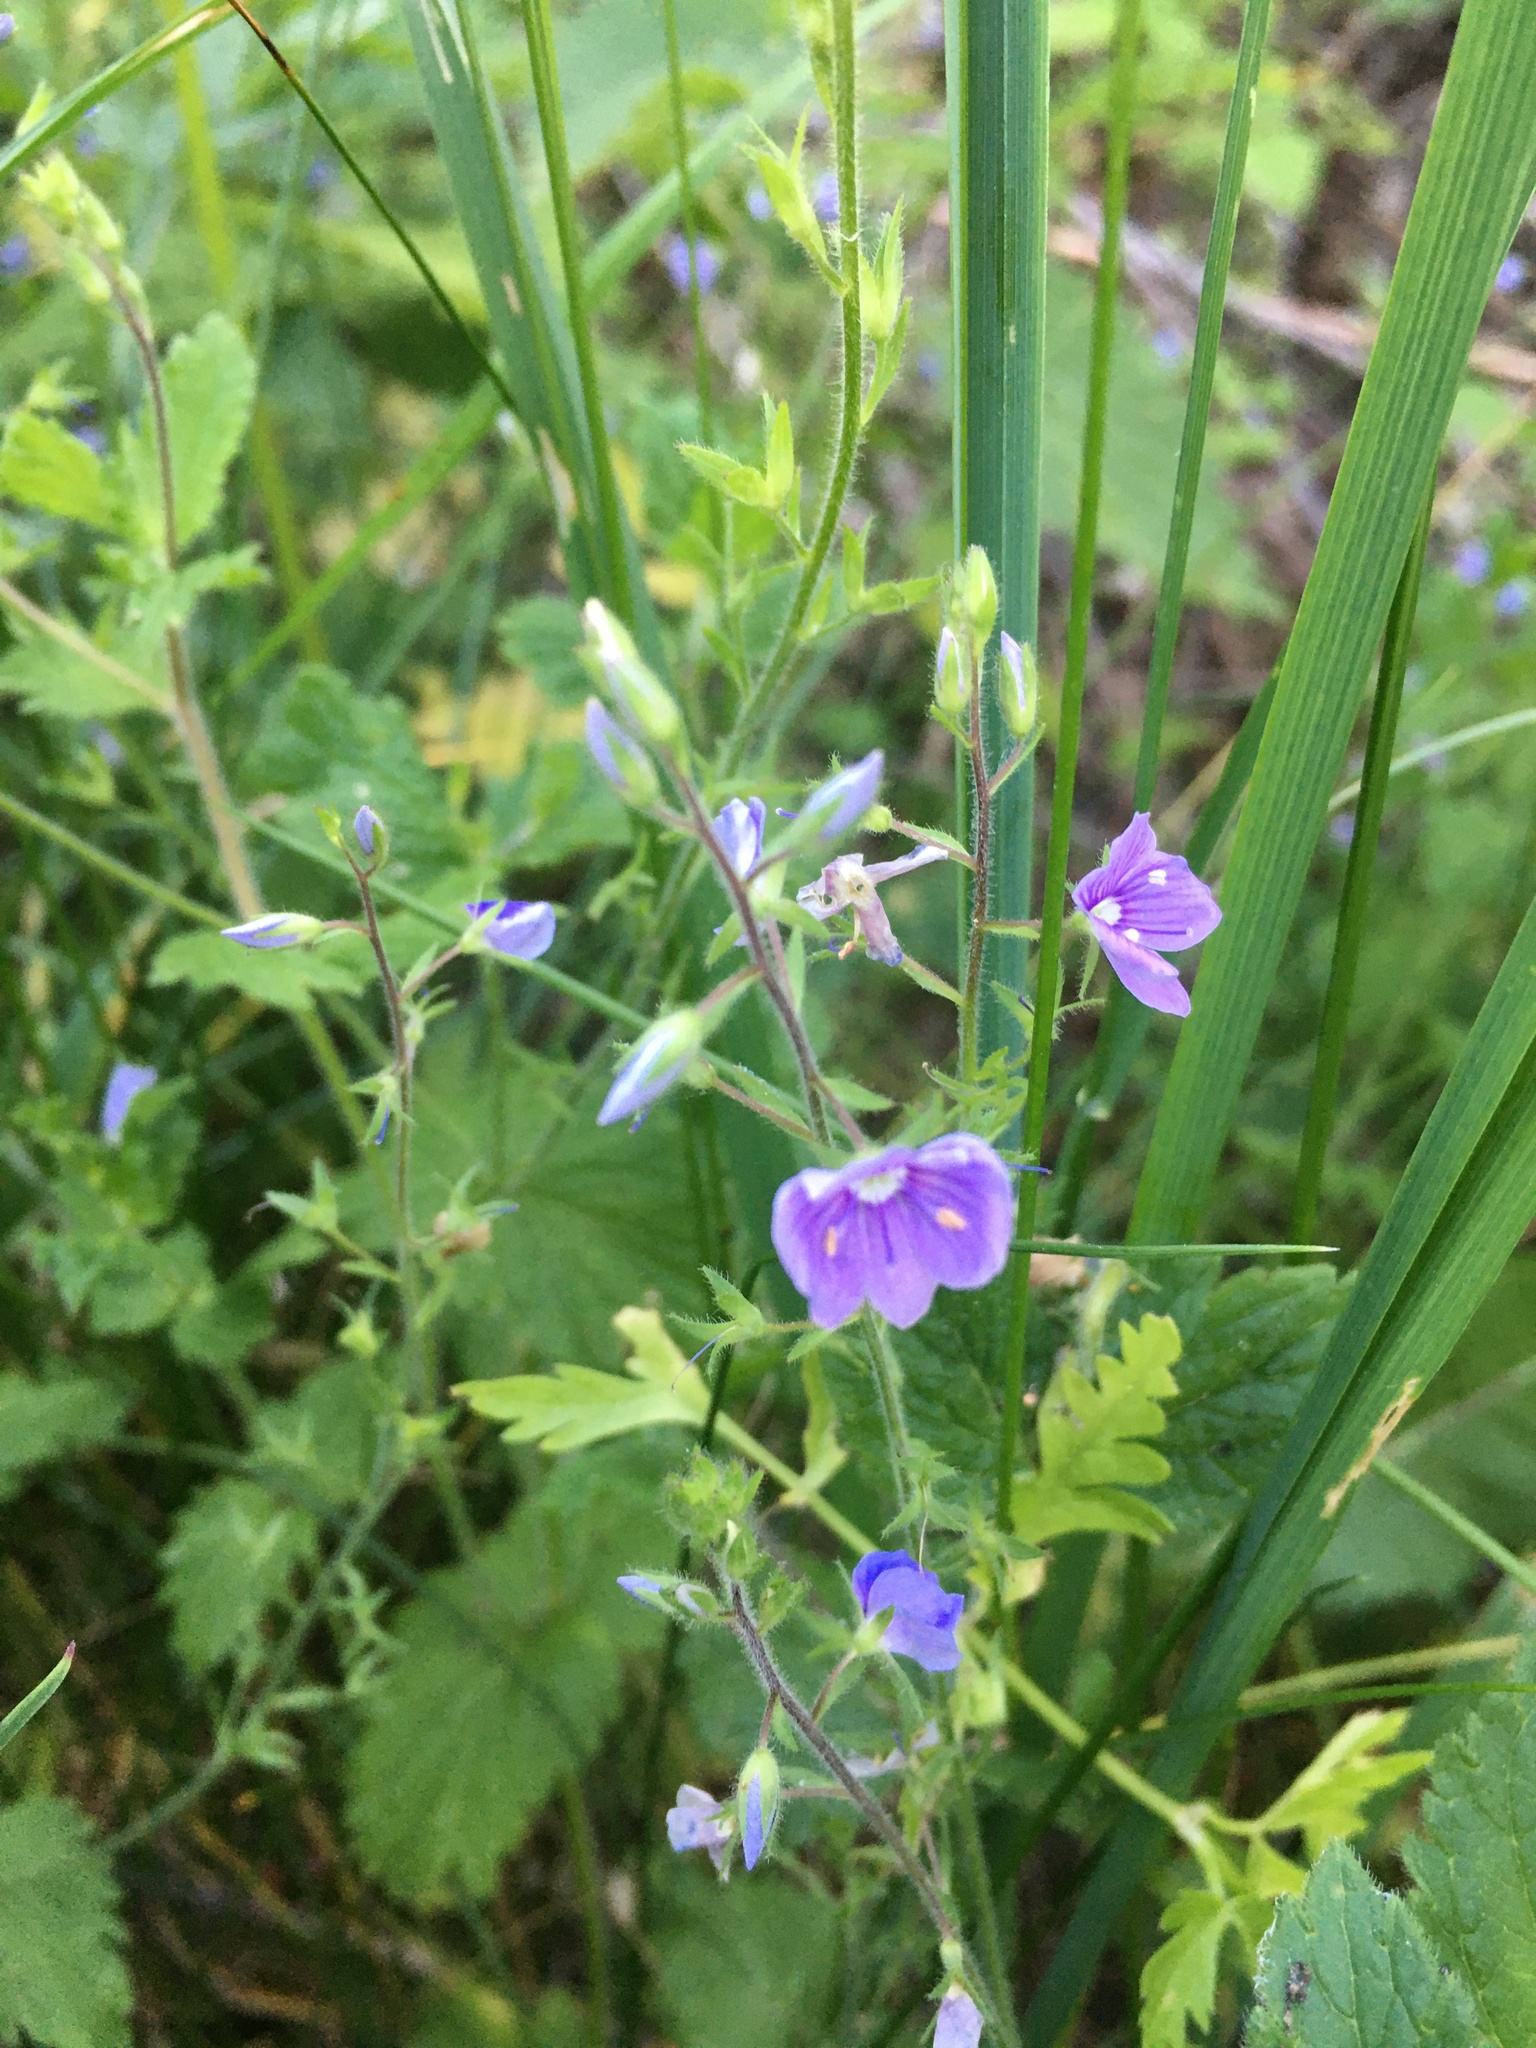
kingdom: Plantae
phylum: Tracheophyta
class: Magnoliopsida
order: Lamiales
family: Plantaginaceae
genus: Veronica
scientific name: Veronica chamaedrys
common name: Germander speedwell
